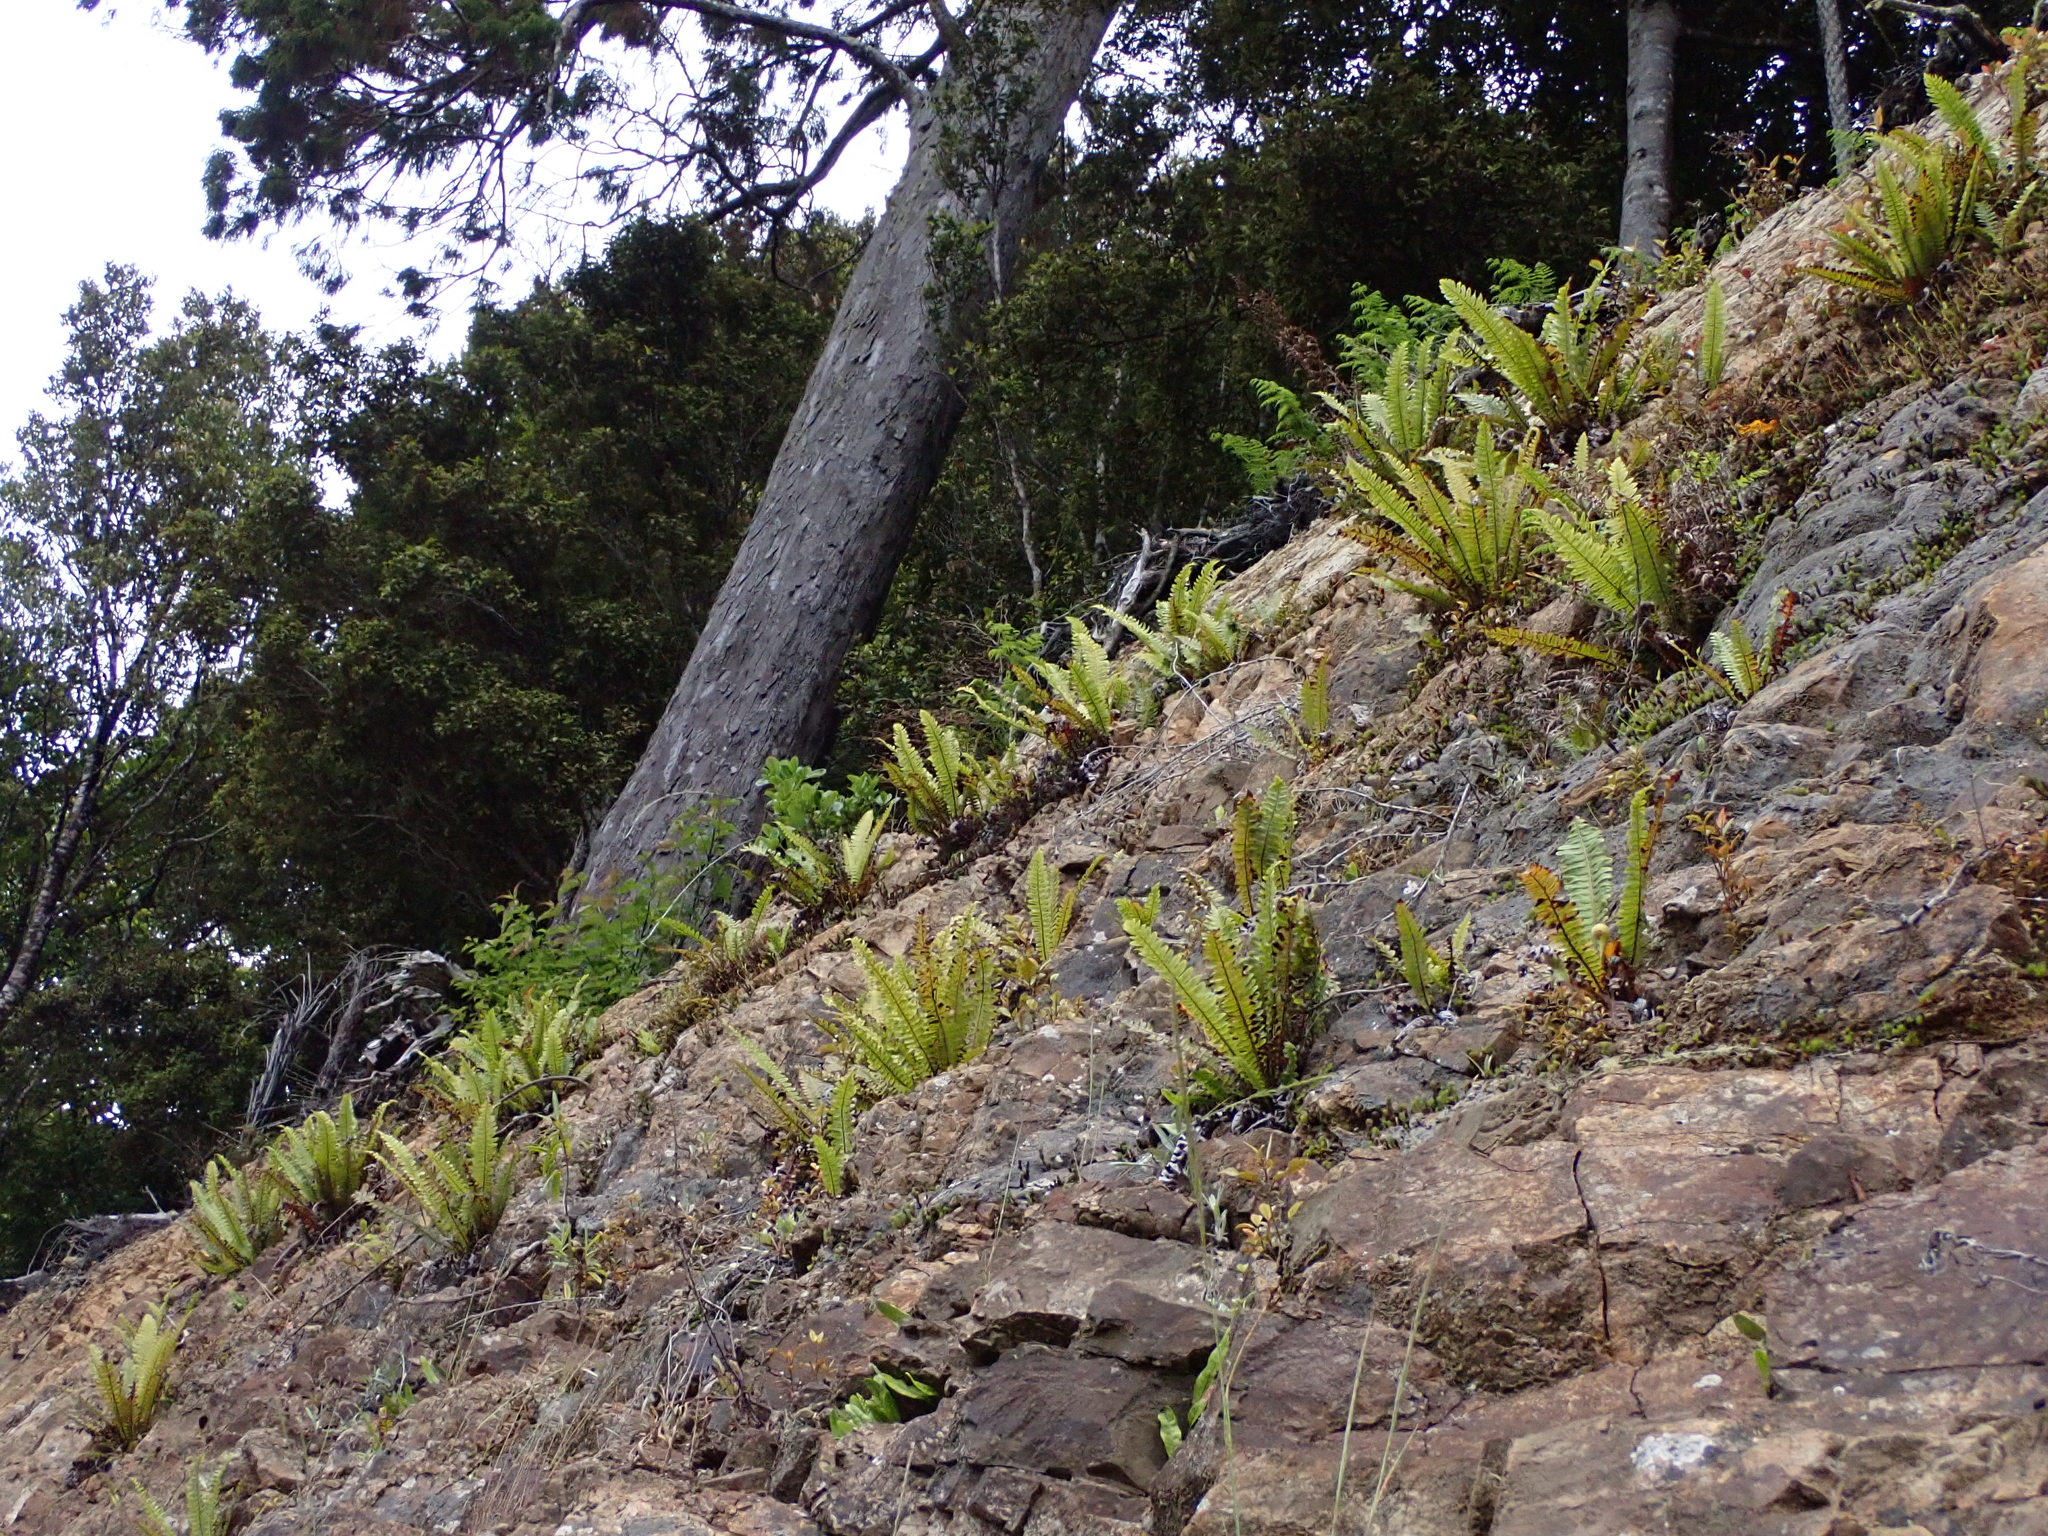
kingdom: Plantae
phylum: Tracheophyta
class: Polypodiopsida
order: Polypodiales
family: Blechnaceae
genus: Lomaria
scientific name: Lomaria discolor
